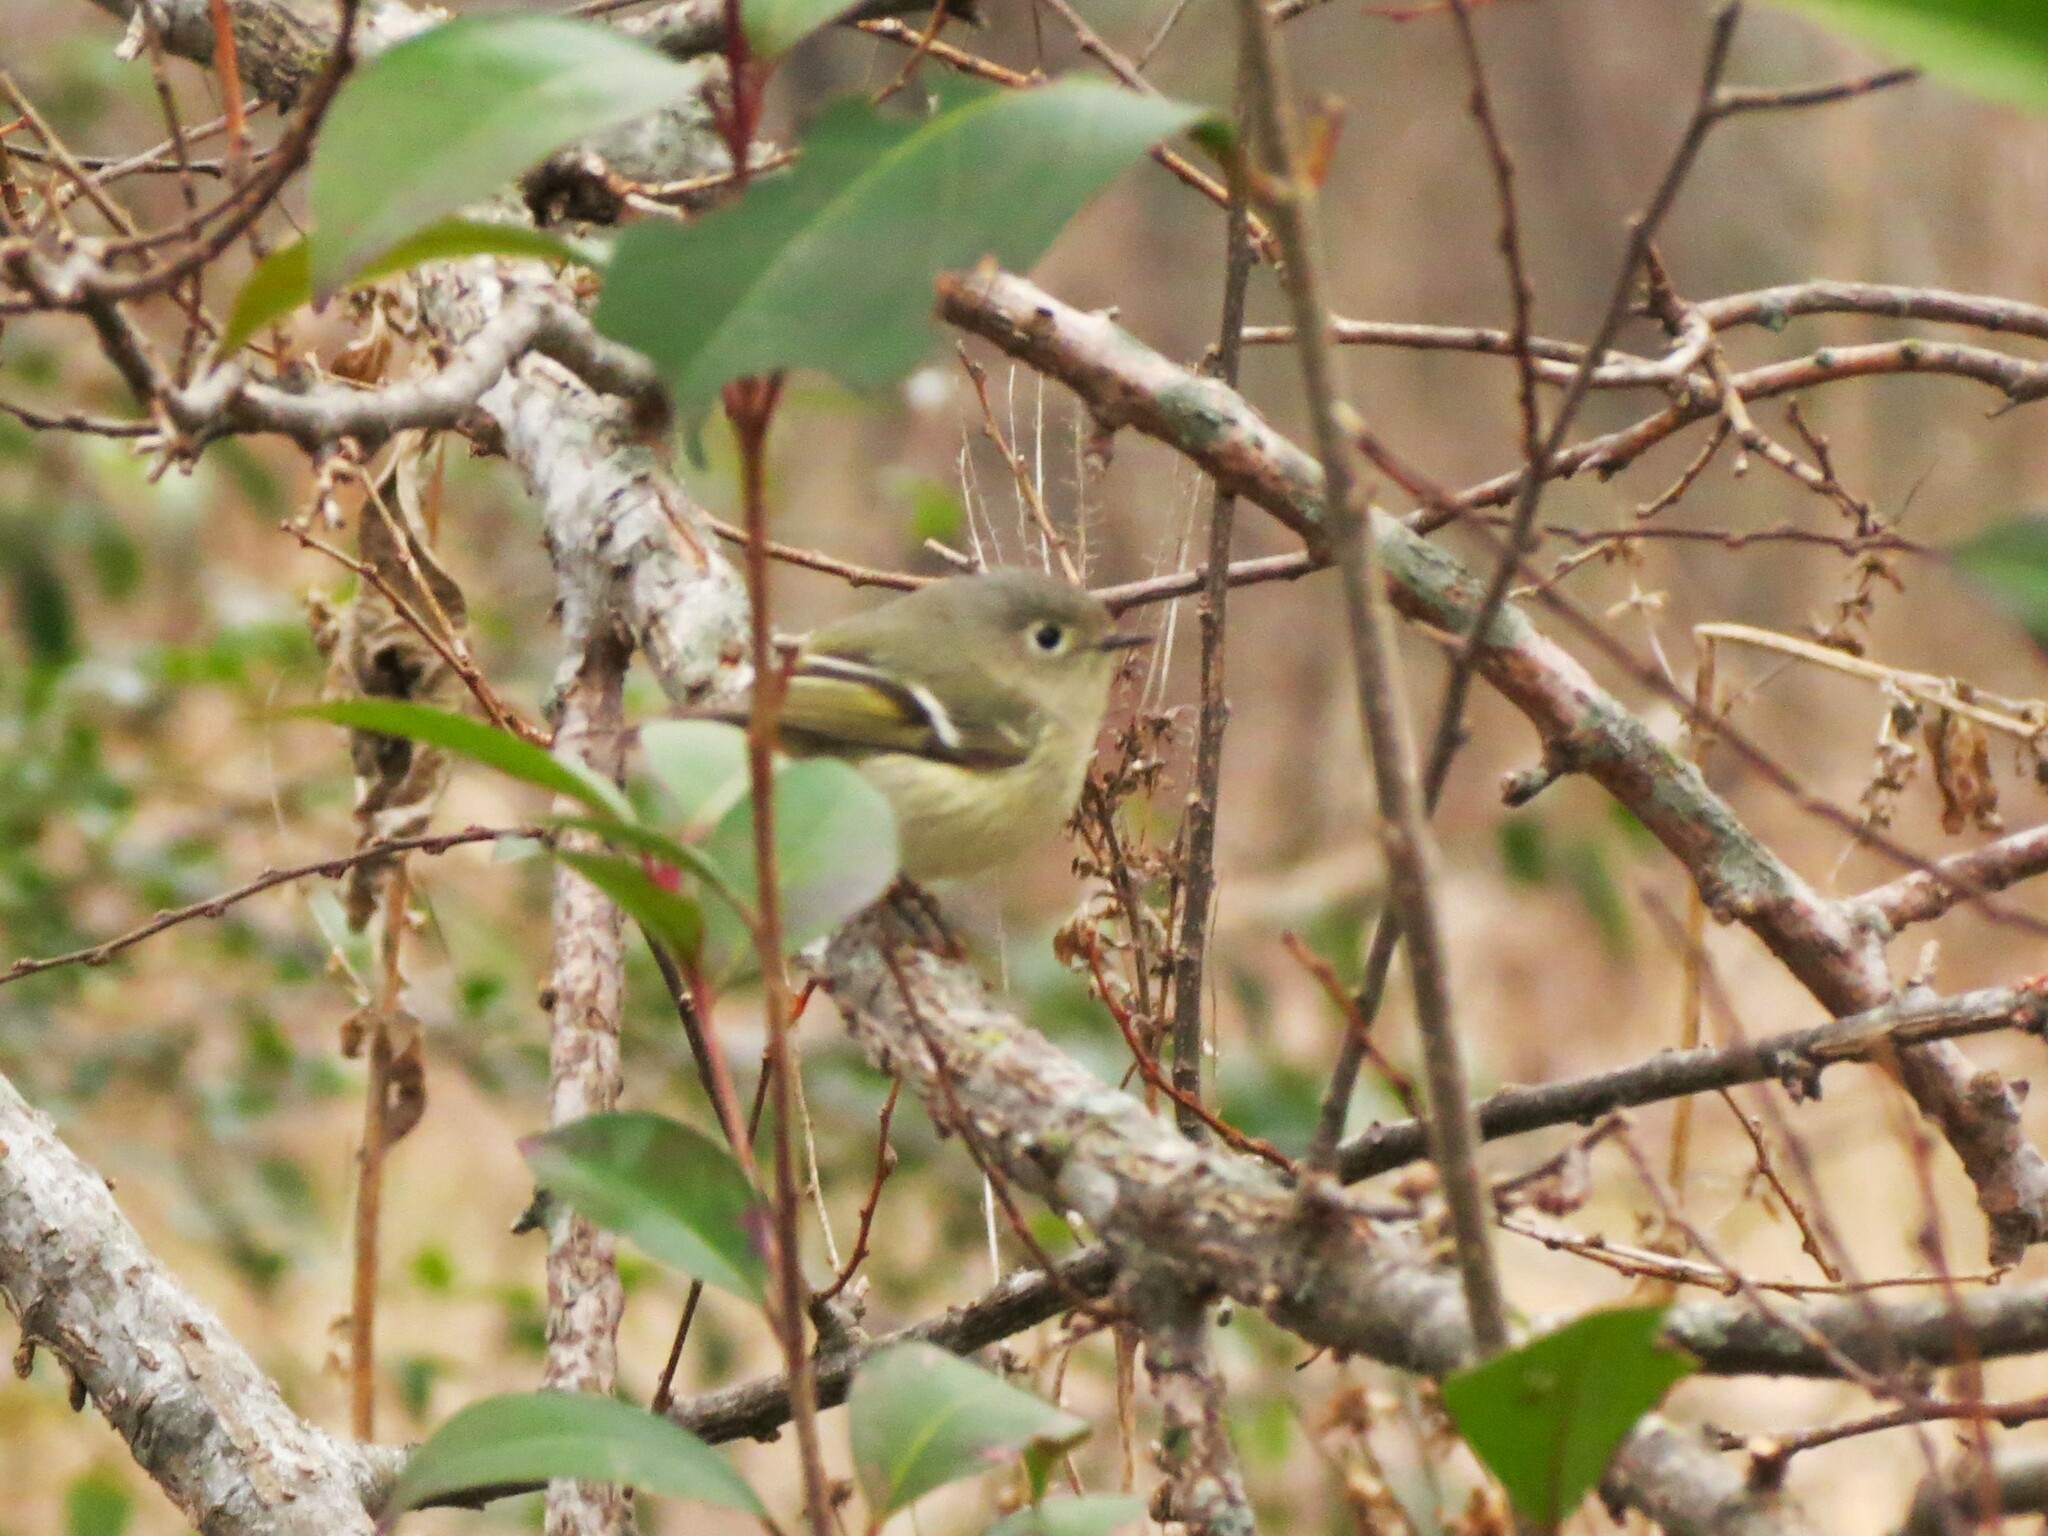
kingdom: Animalia
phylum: Chordata
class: Aves
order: Passeriformes
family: Regulidae
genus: Regulus
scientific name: Regulus calendula
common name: Ruby-crowned kinglet
